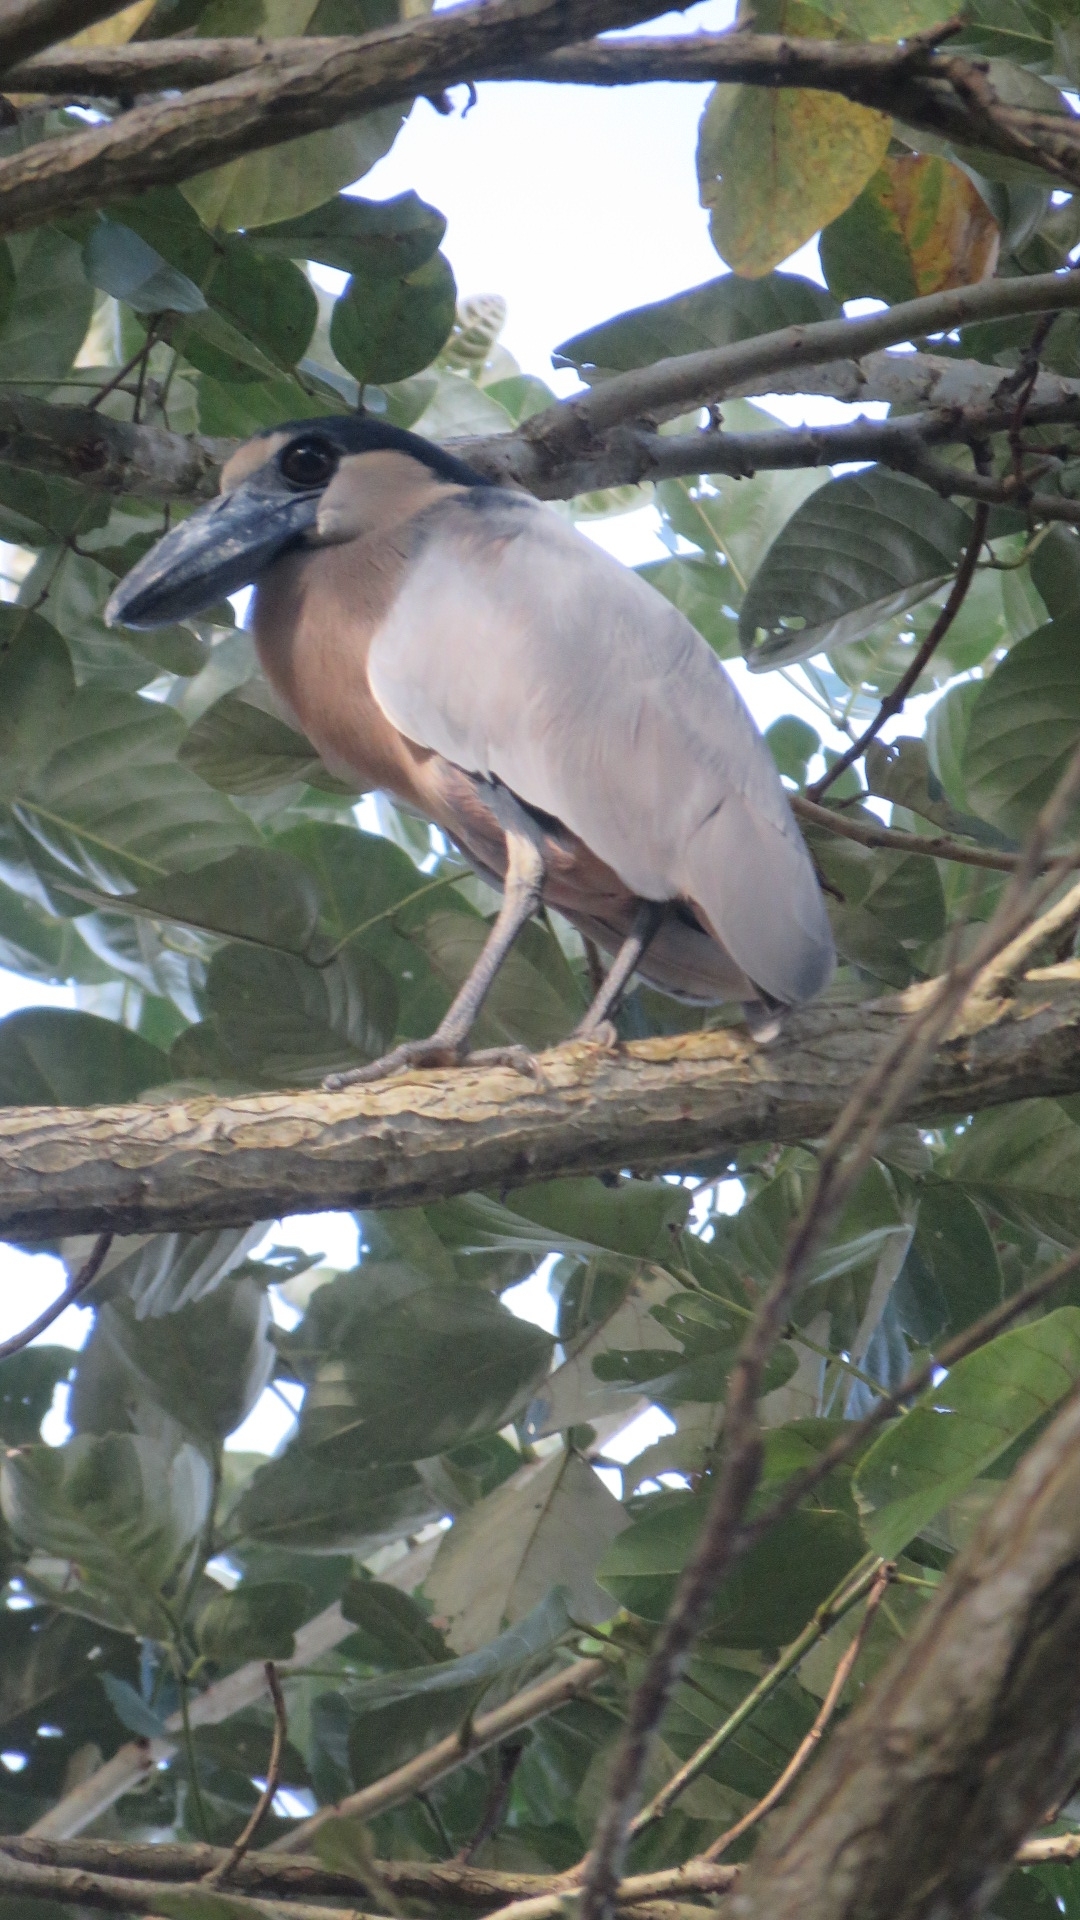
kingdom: Animalia
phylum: Chordata
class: Aves
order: Pelecaniformes
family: Ardeidae
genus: Cochlearius
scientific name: Cochlearius cochlearius
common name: Boat-billed heron
